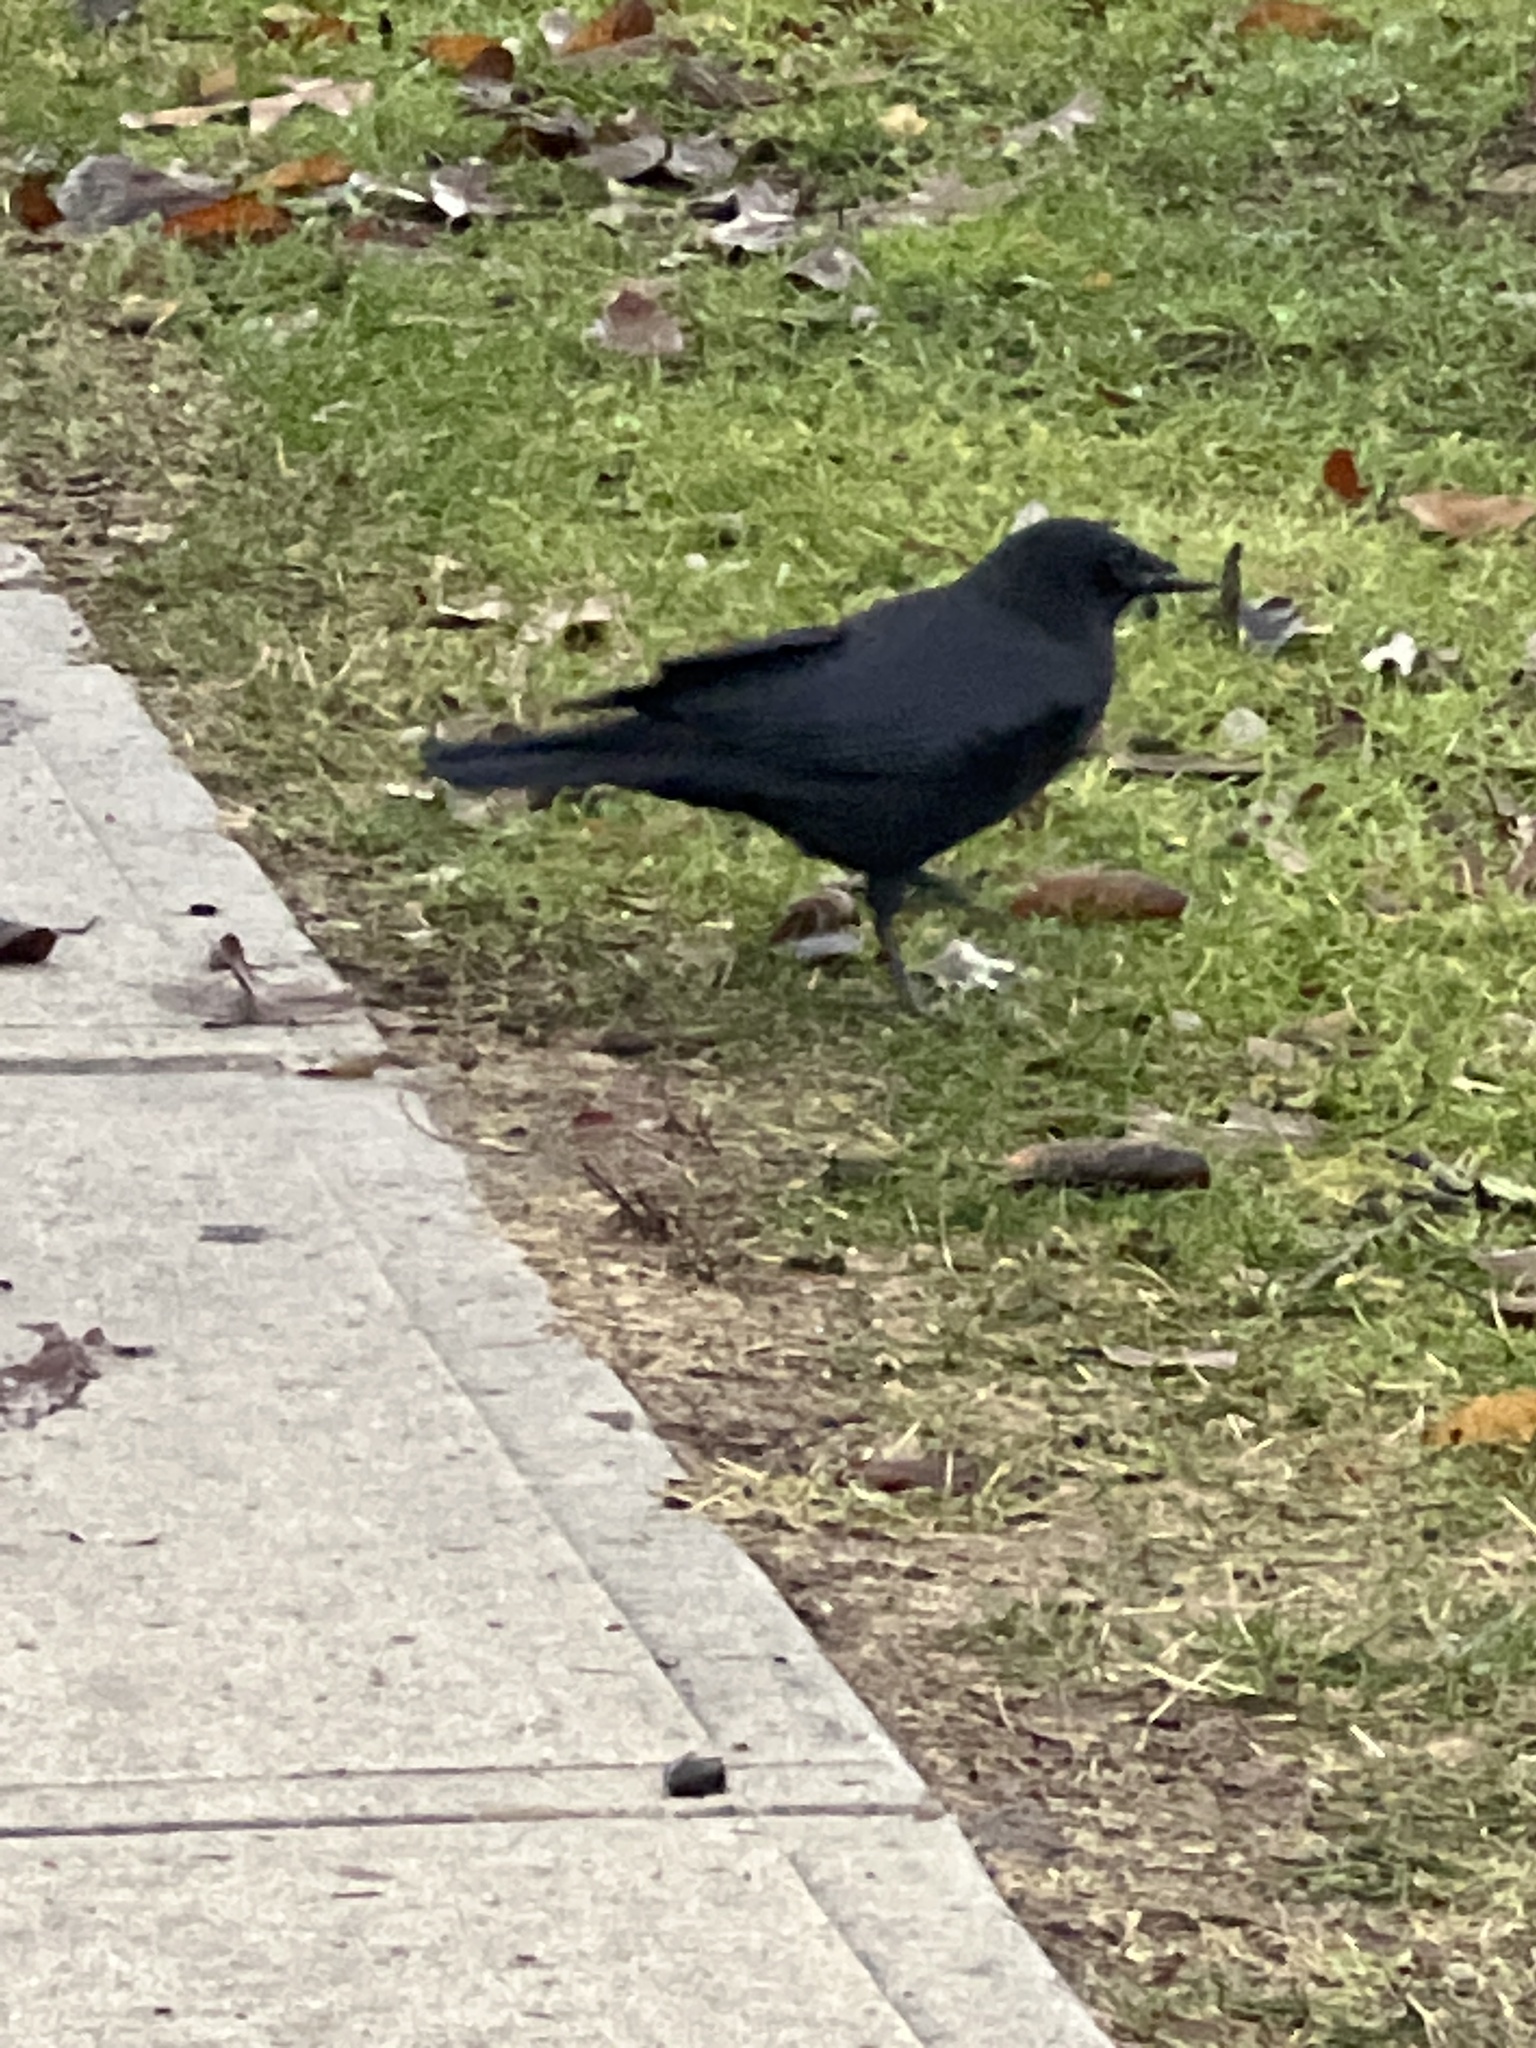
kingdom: Animalia
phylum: Chordata
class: Aves
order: Passeriformes
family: Corvidae
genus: Corvus
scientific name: Corvus brachyrhynchos
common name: American crow
